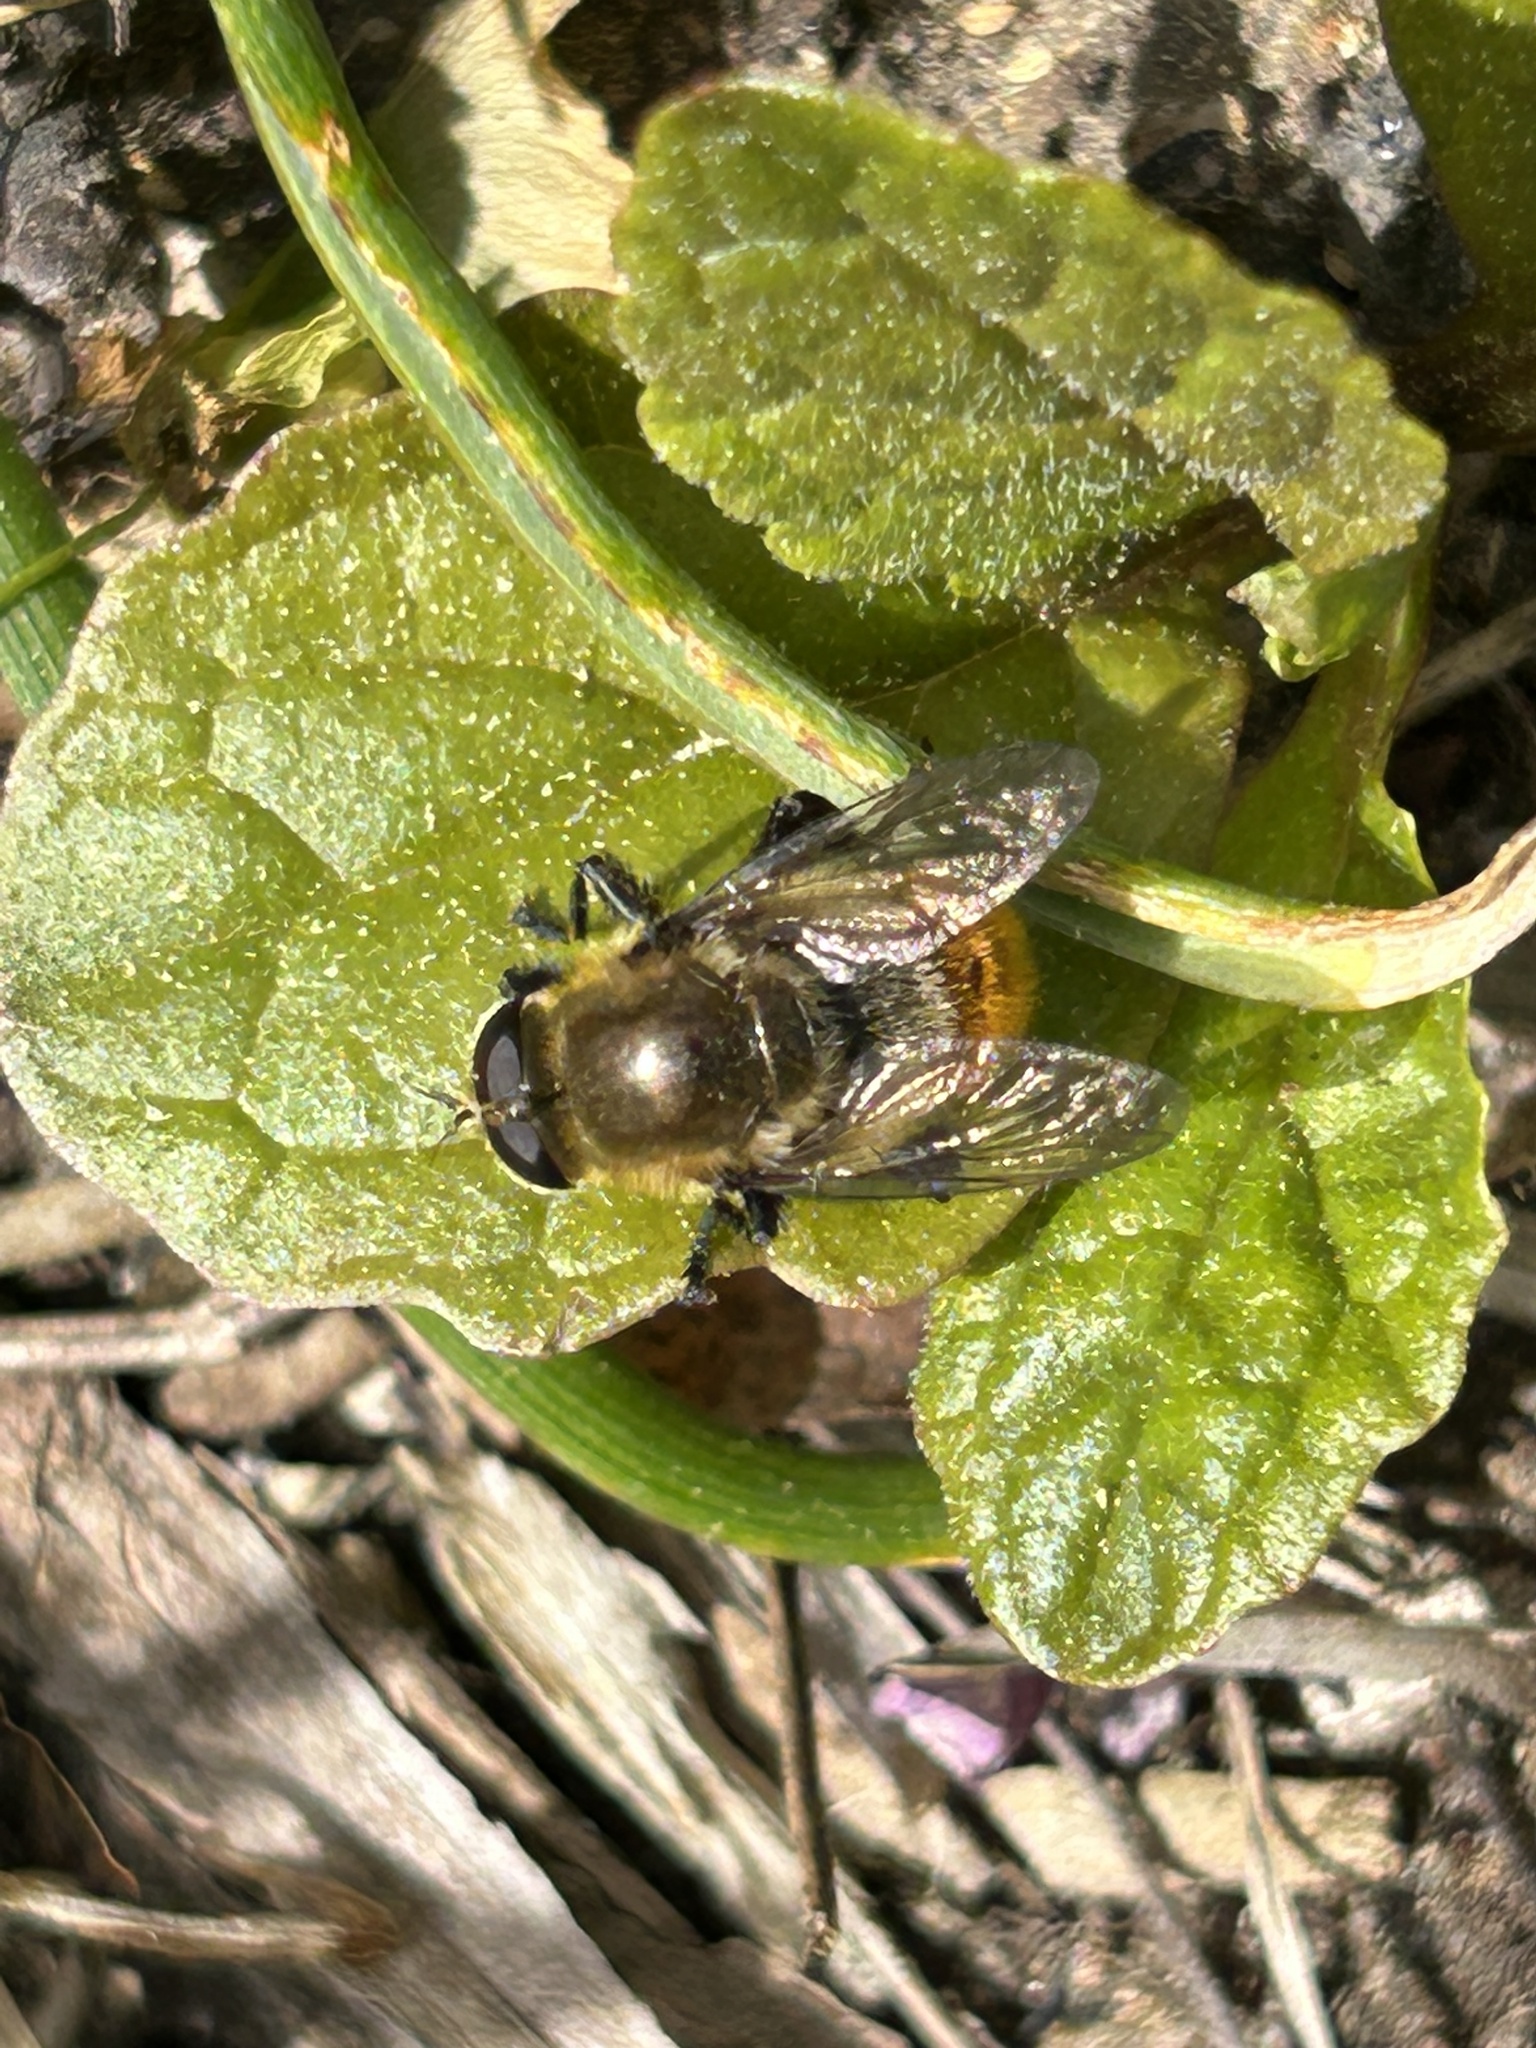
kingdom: Animalia
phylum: Arthropoda
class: Insecta
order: Diptera
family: Syrphidae
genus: Merodon
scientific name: Merodon equestris
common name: Greater bulb-fly
